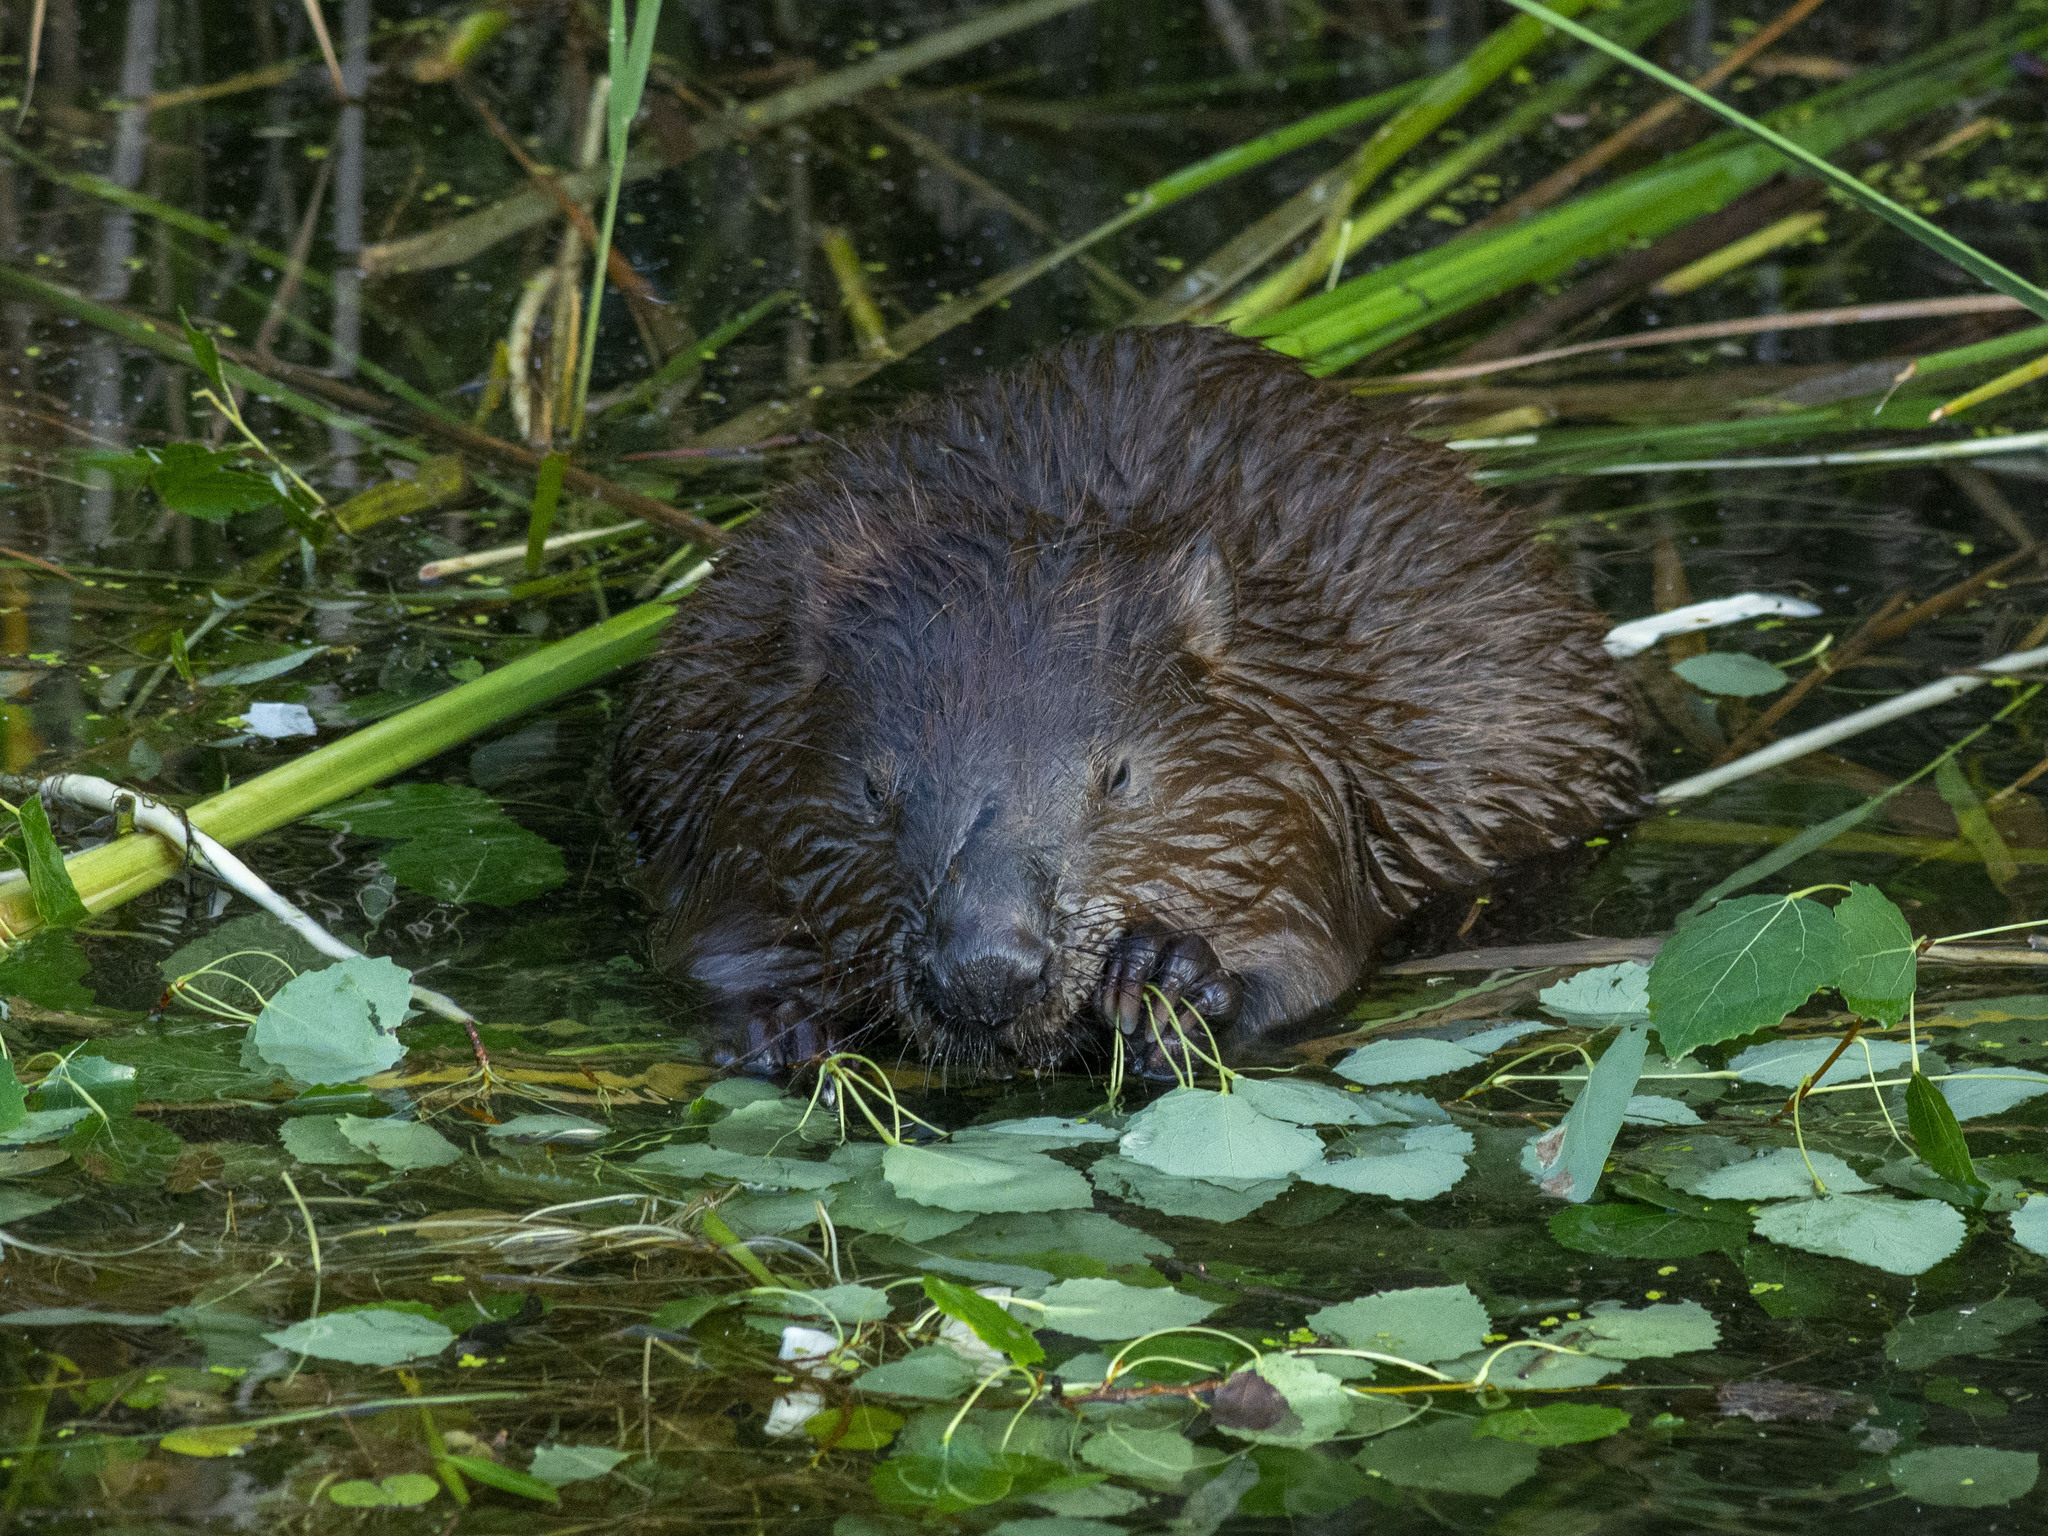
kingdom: Animalia
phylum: Chordata
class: Mammalia
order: Rodentia
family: Castoridae
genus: Castor
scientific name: Castor fiber
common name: Eurasian beaver
